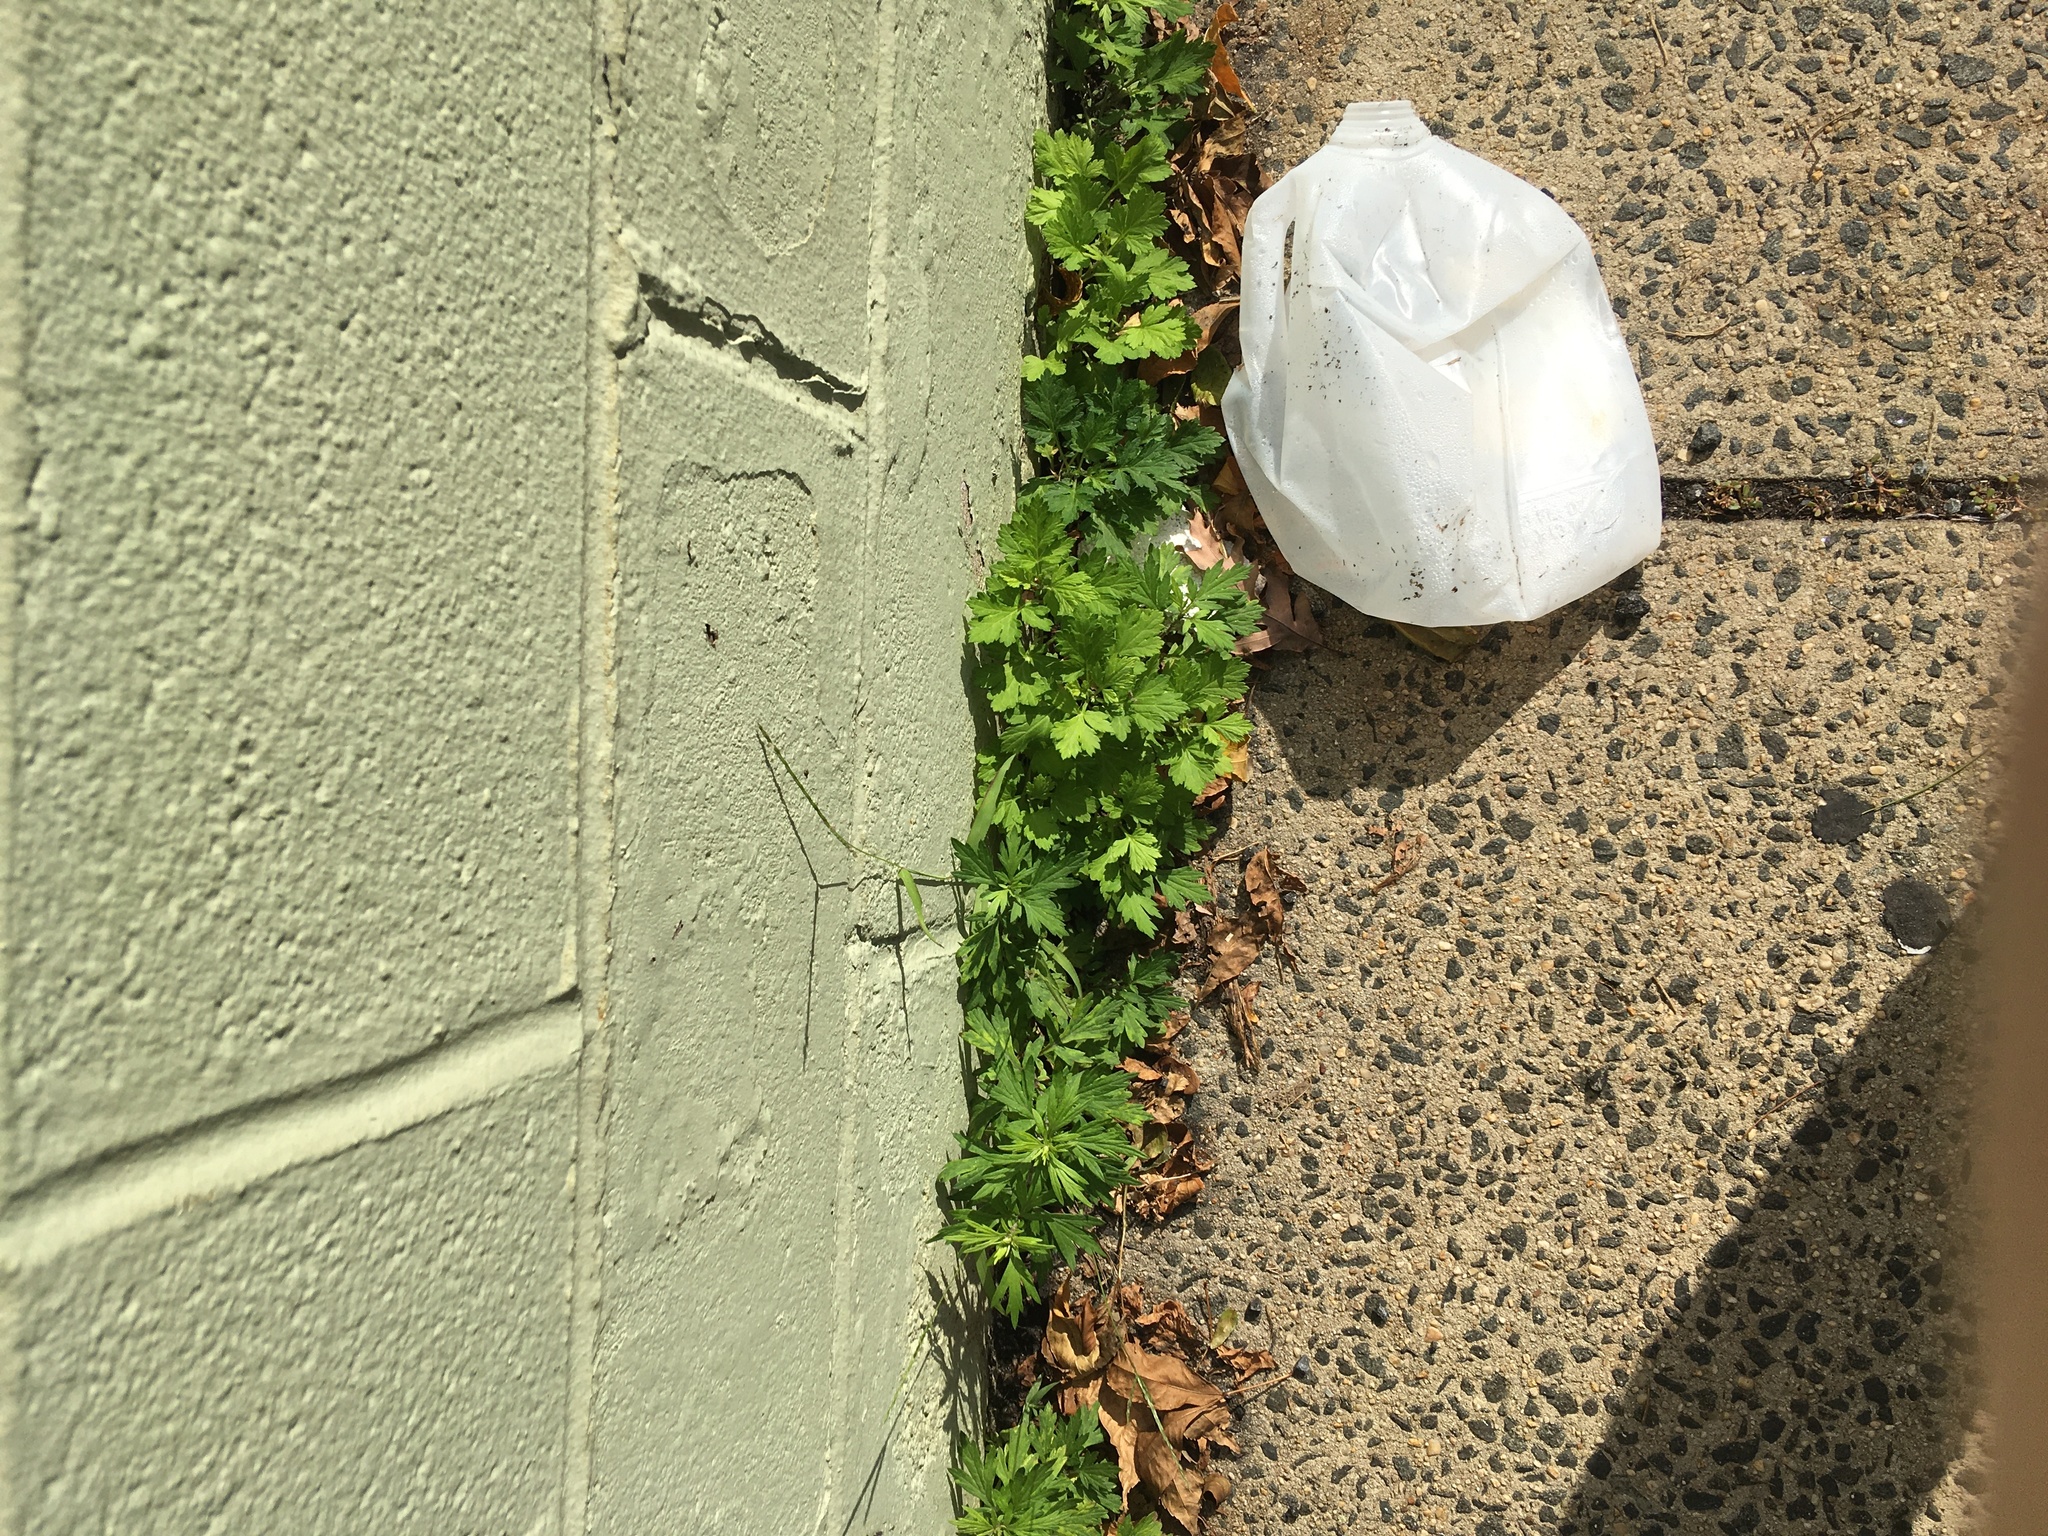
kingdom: Plantae
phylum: Tracheophyta
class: Magnoliopsida
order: Asterales
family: Asteraceae
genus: Artemisia
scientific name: Artemisia vulgaris
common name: Mugwort
